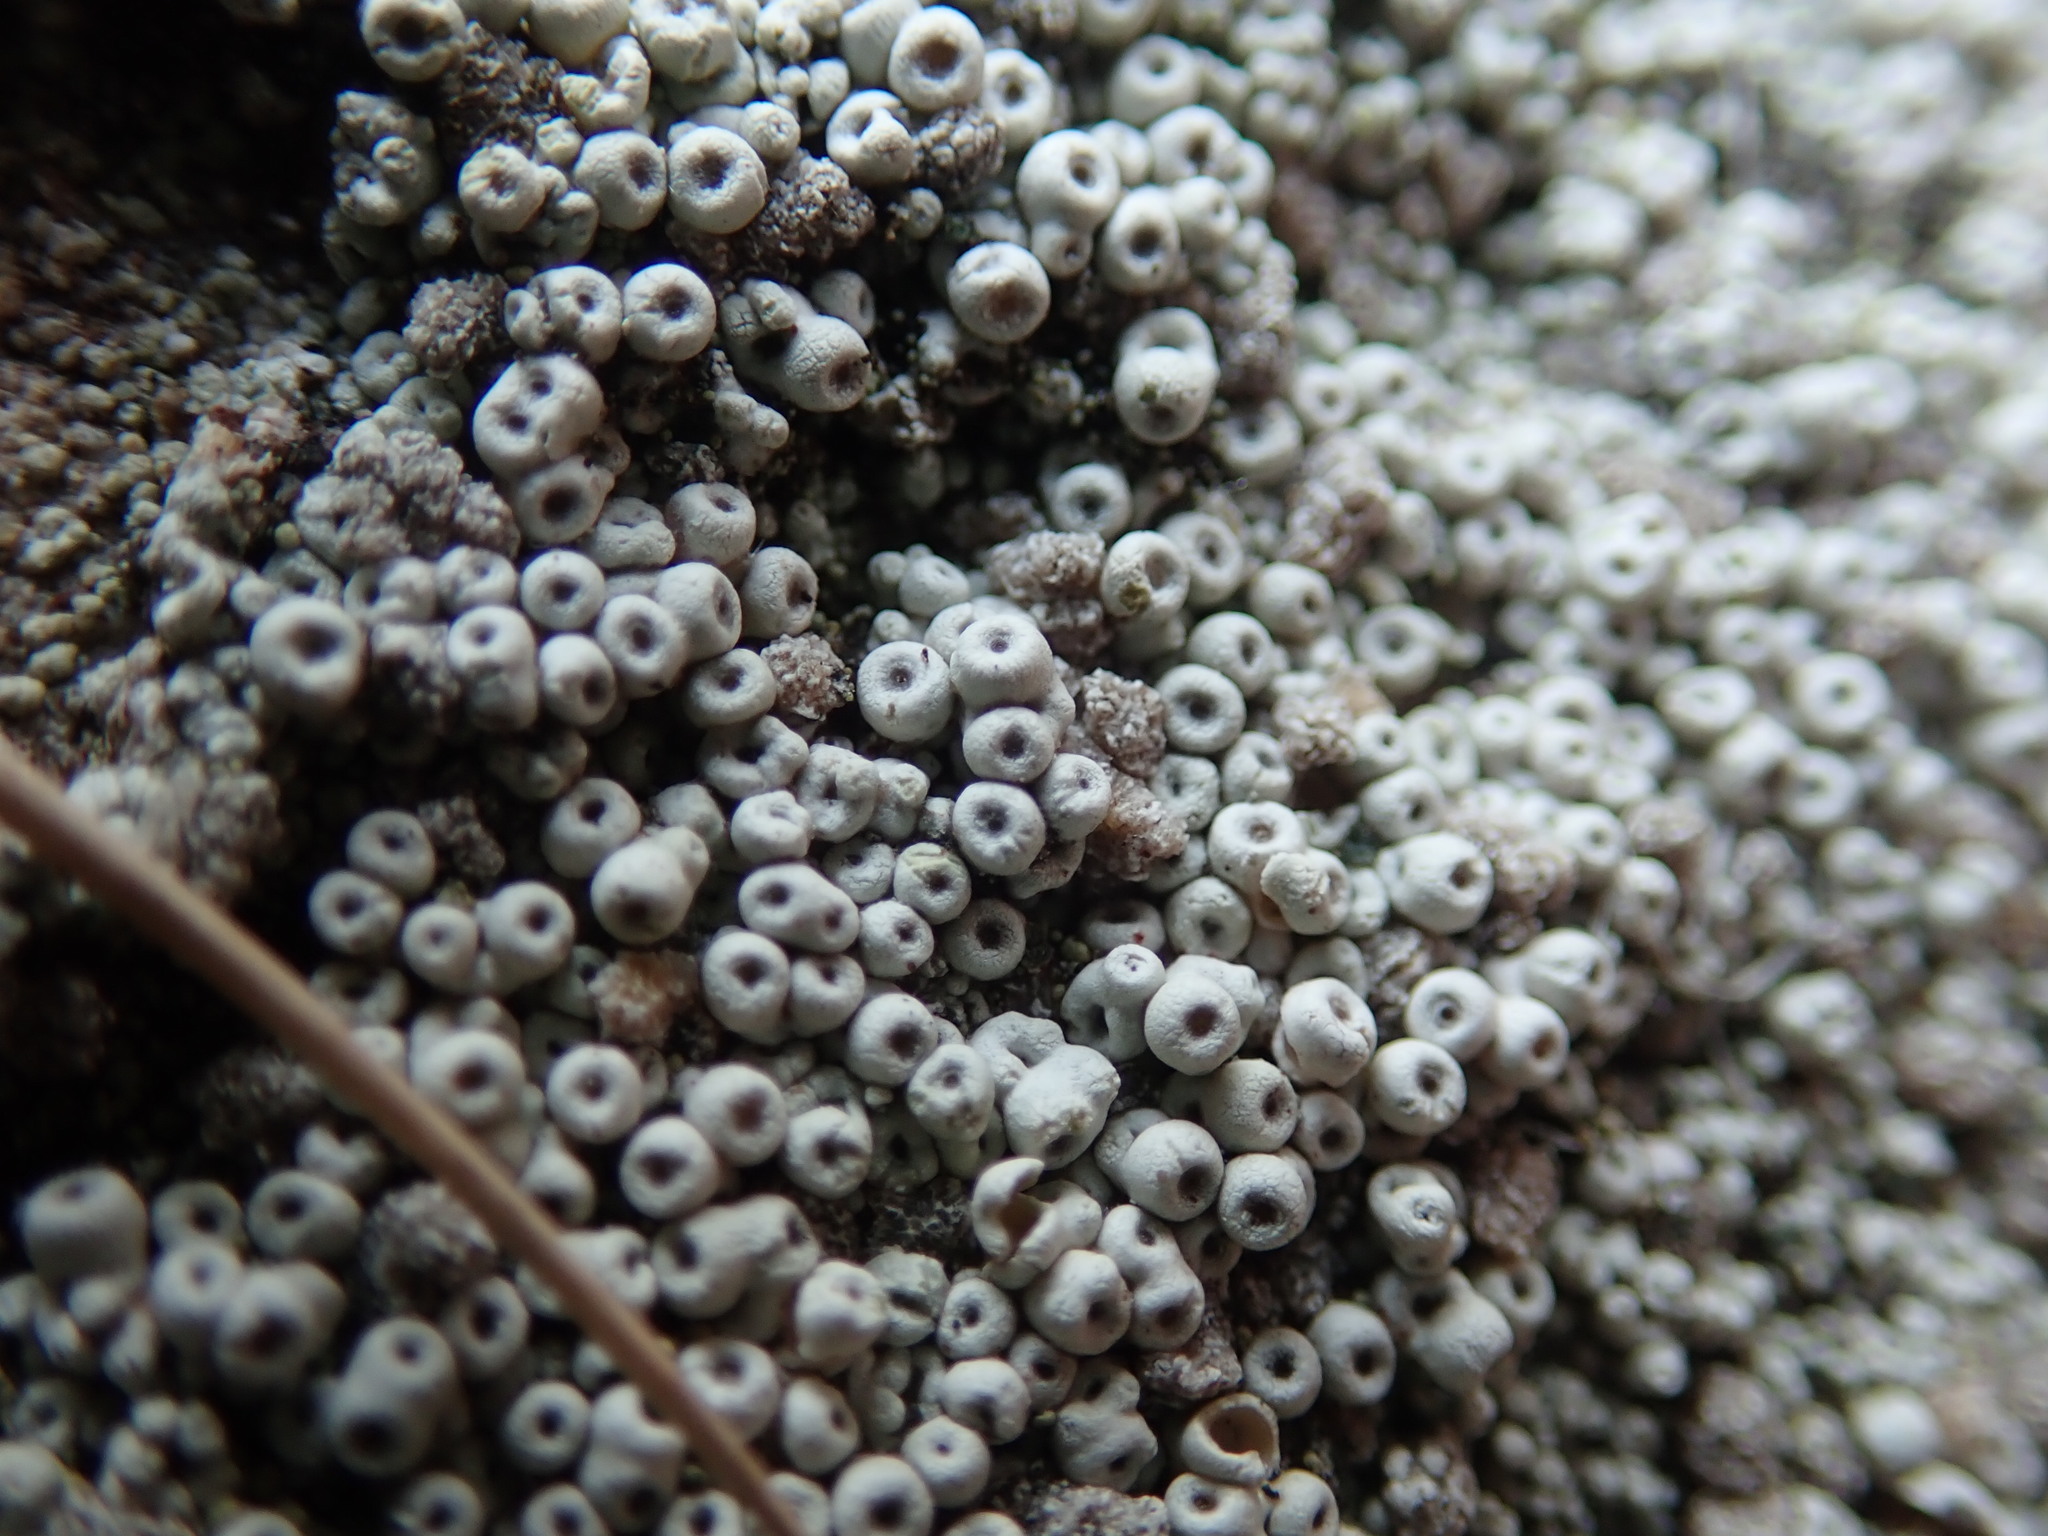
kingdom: Fungi
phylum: Ascomycota
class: Lecanoromycetes
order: Pertusariales
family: Coccotremataceae
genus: Coccotrema
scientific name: Coccotrema maritimum
